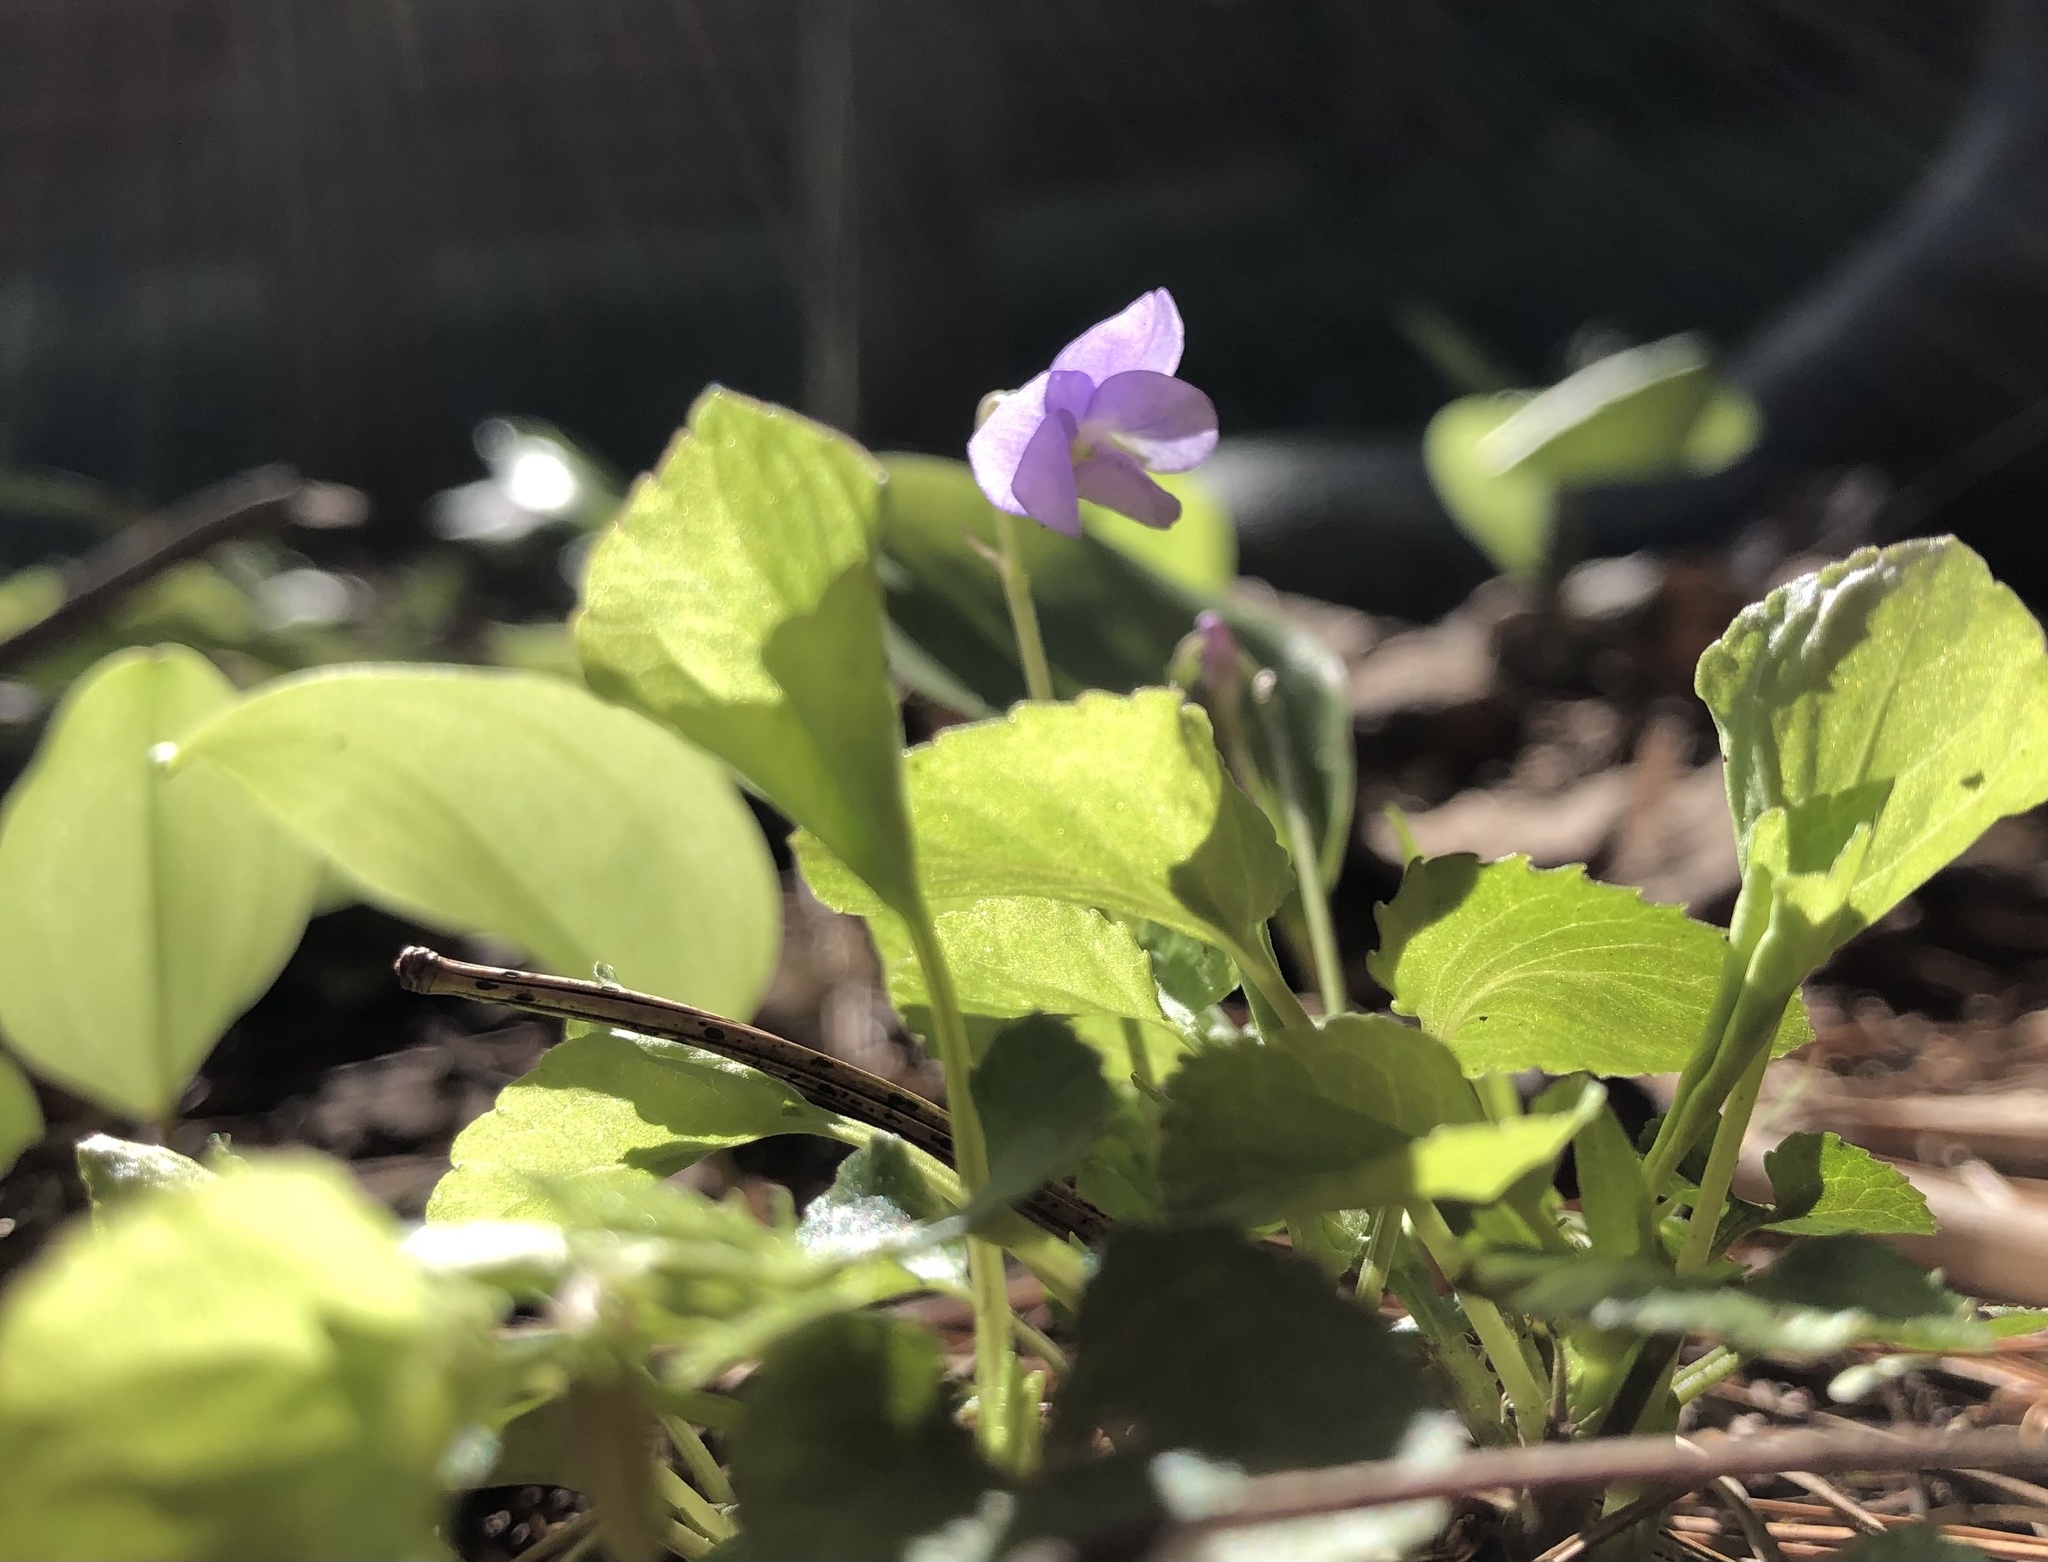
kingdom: Plantae
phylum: Tracheophyta
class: Magnoliopsida
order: Malpighiales
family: Violaceae
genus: Viola
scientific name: Viola labradorica
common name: Labrador violet
